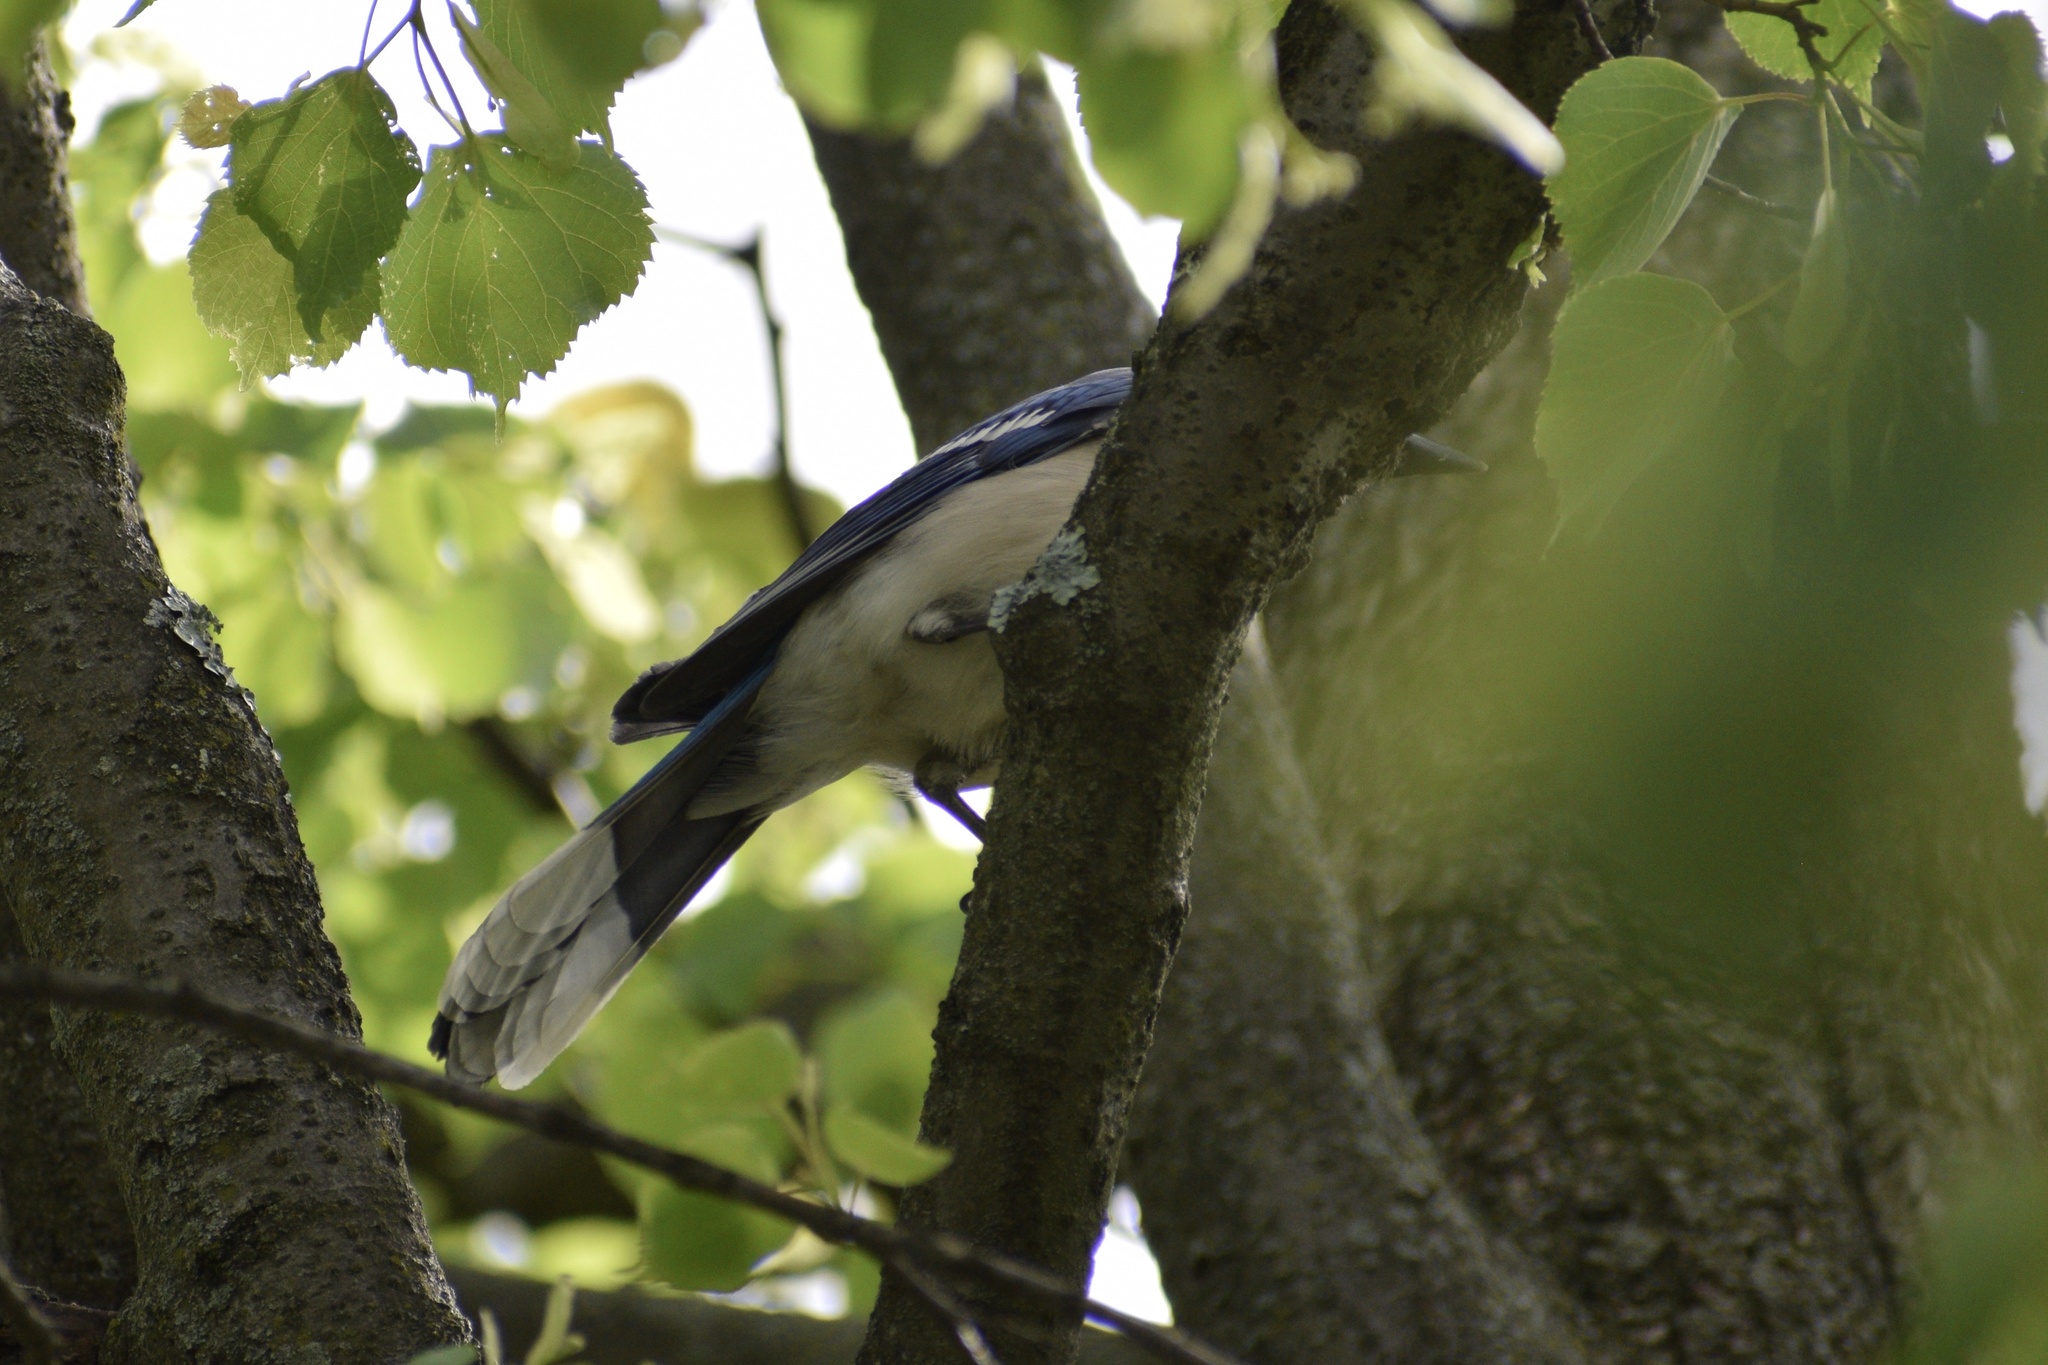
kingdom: Animalia
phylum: Chordata
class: Aves
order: Passeriformes
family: Corvidae
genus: Cyanocitta
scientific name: Cyanocitta cristata
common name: Blue jay
